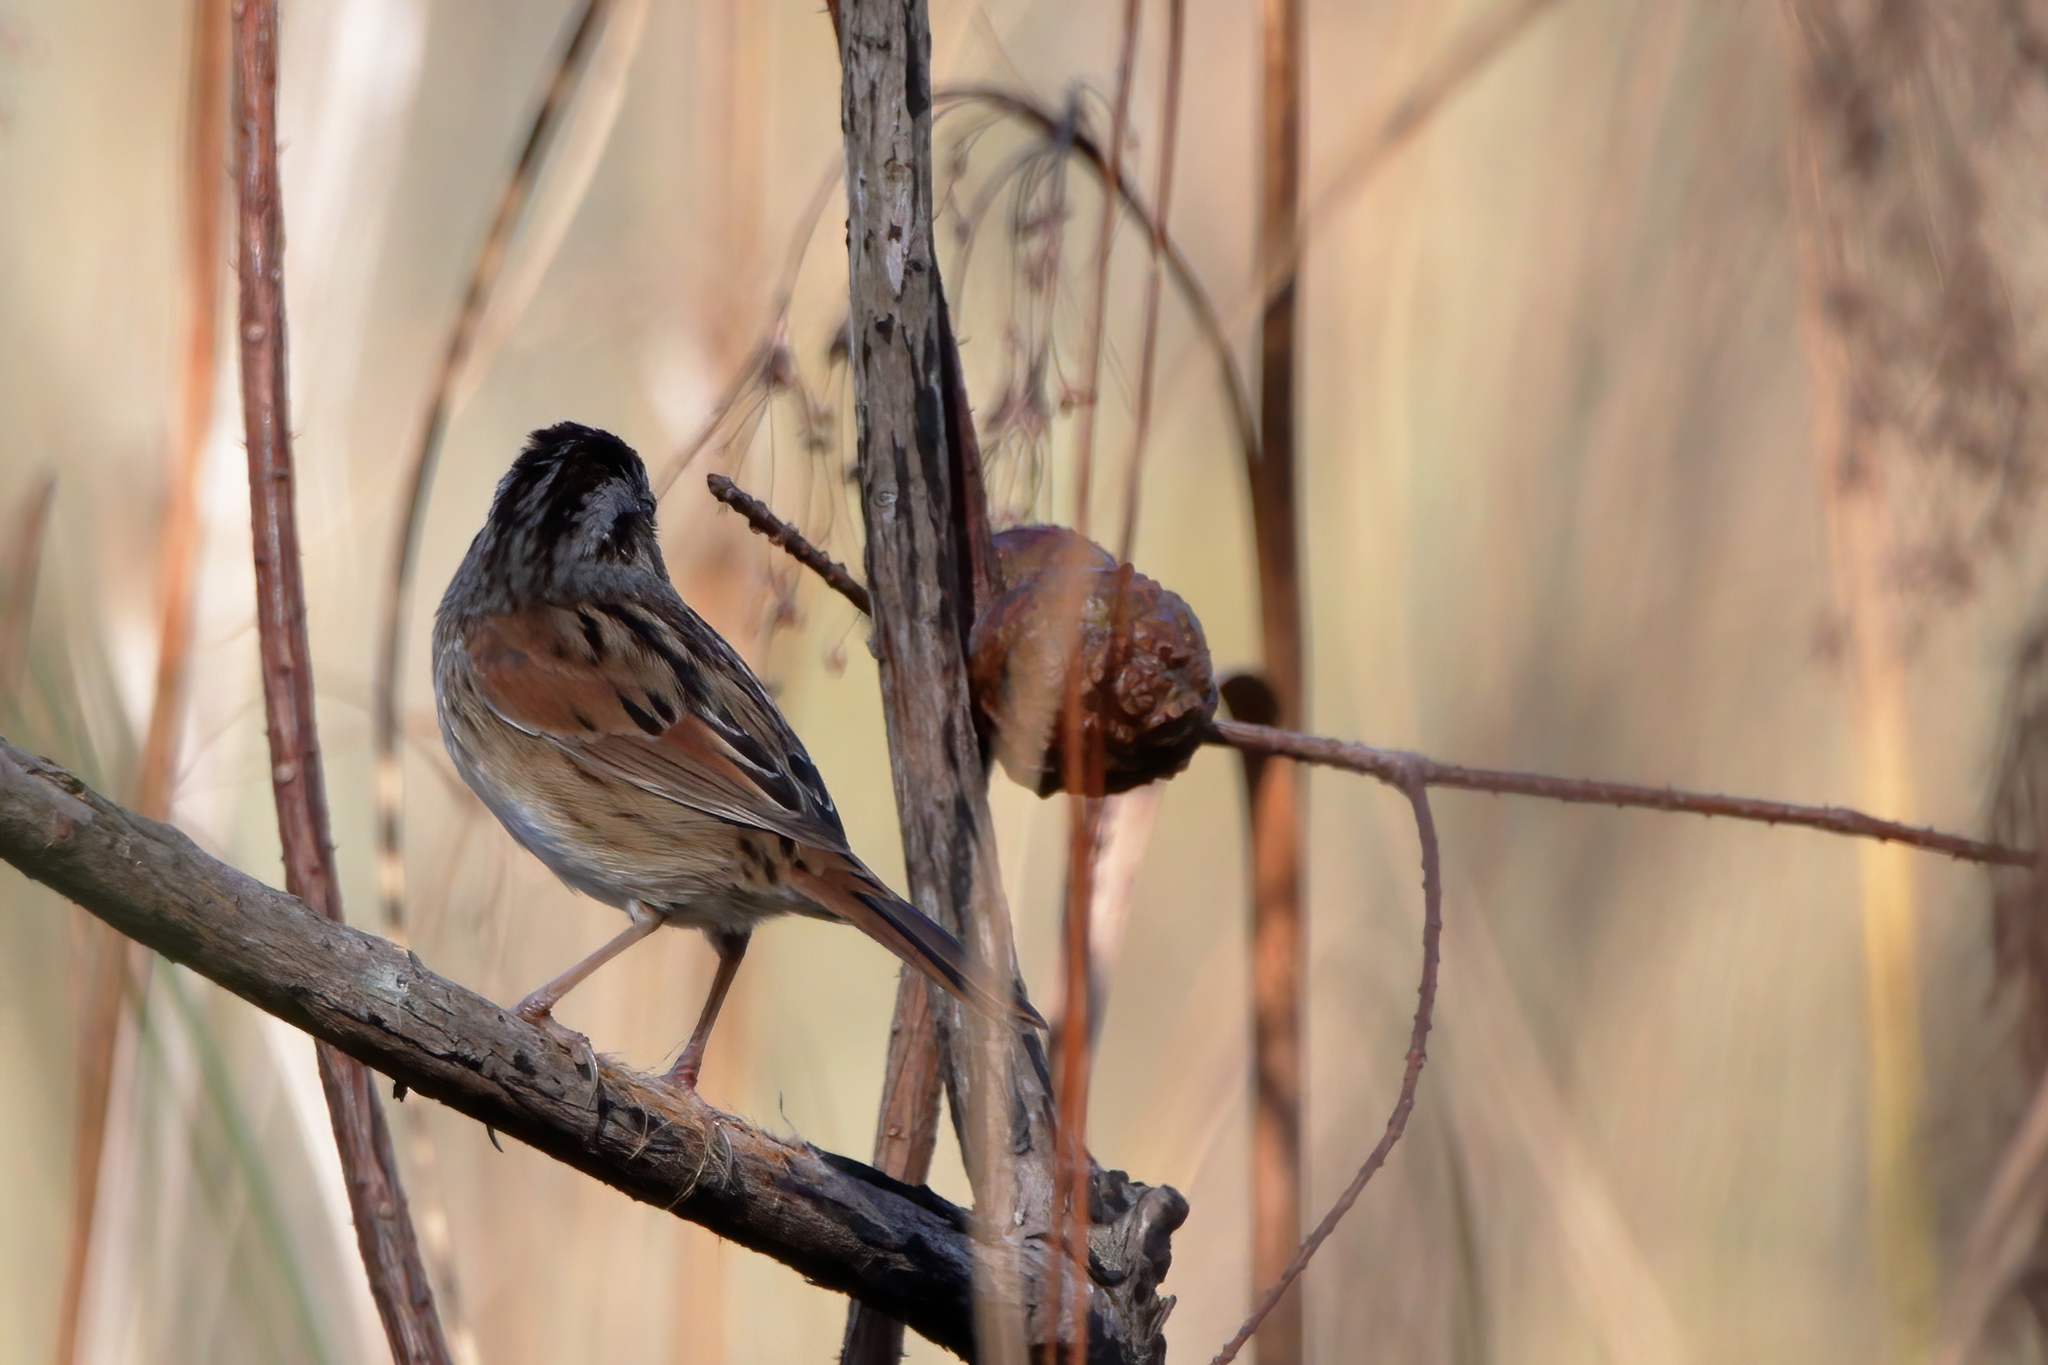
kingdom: Animalia
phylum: Chordata
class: Aves
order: Passeriformes
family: Passerellidae
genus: Melospiza
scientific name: Melospiza georgiana
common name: Swamp sparrow
